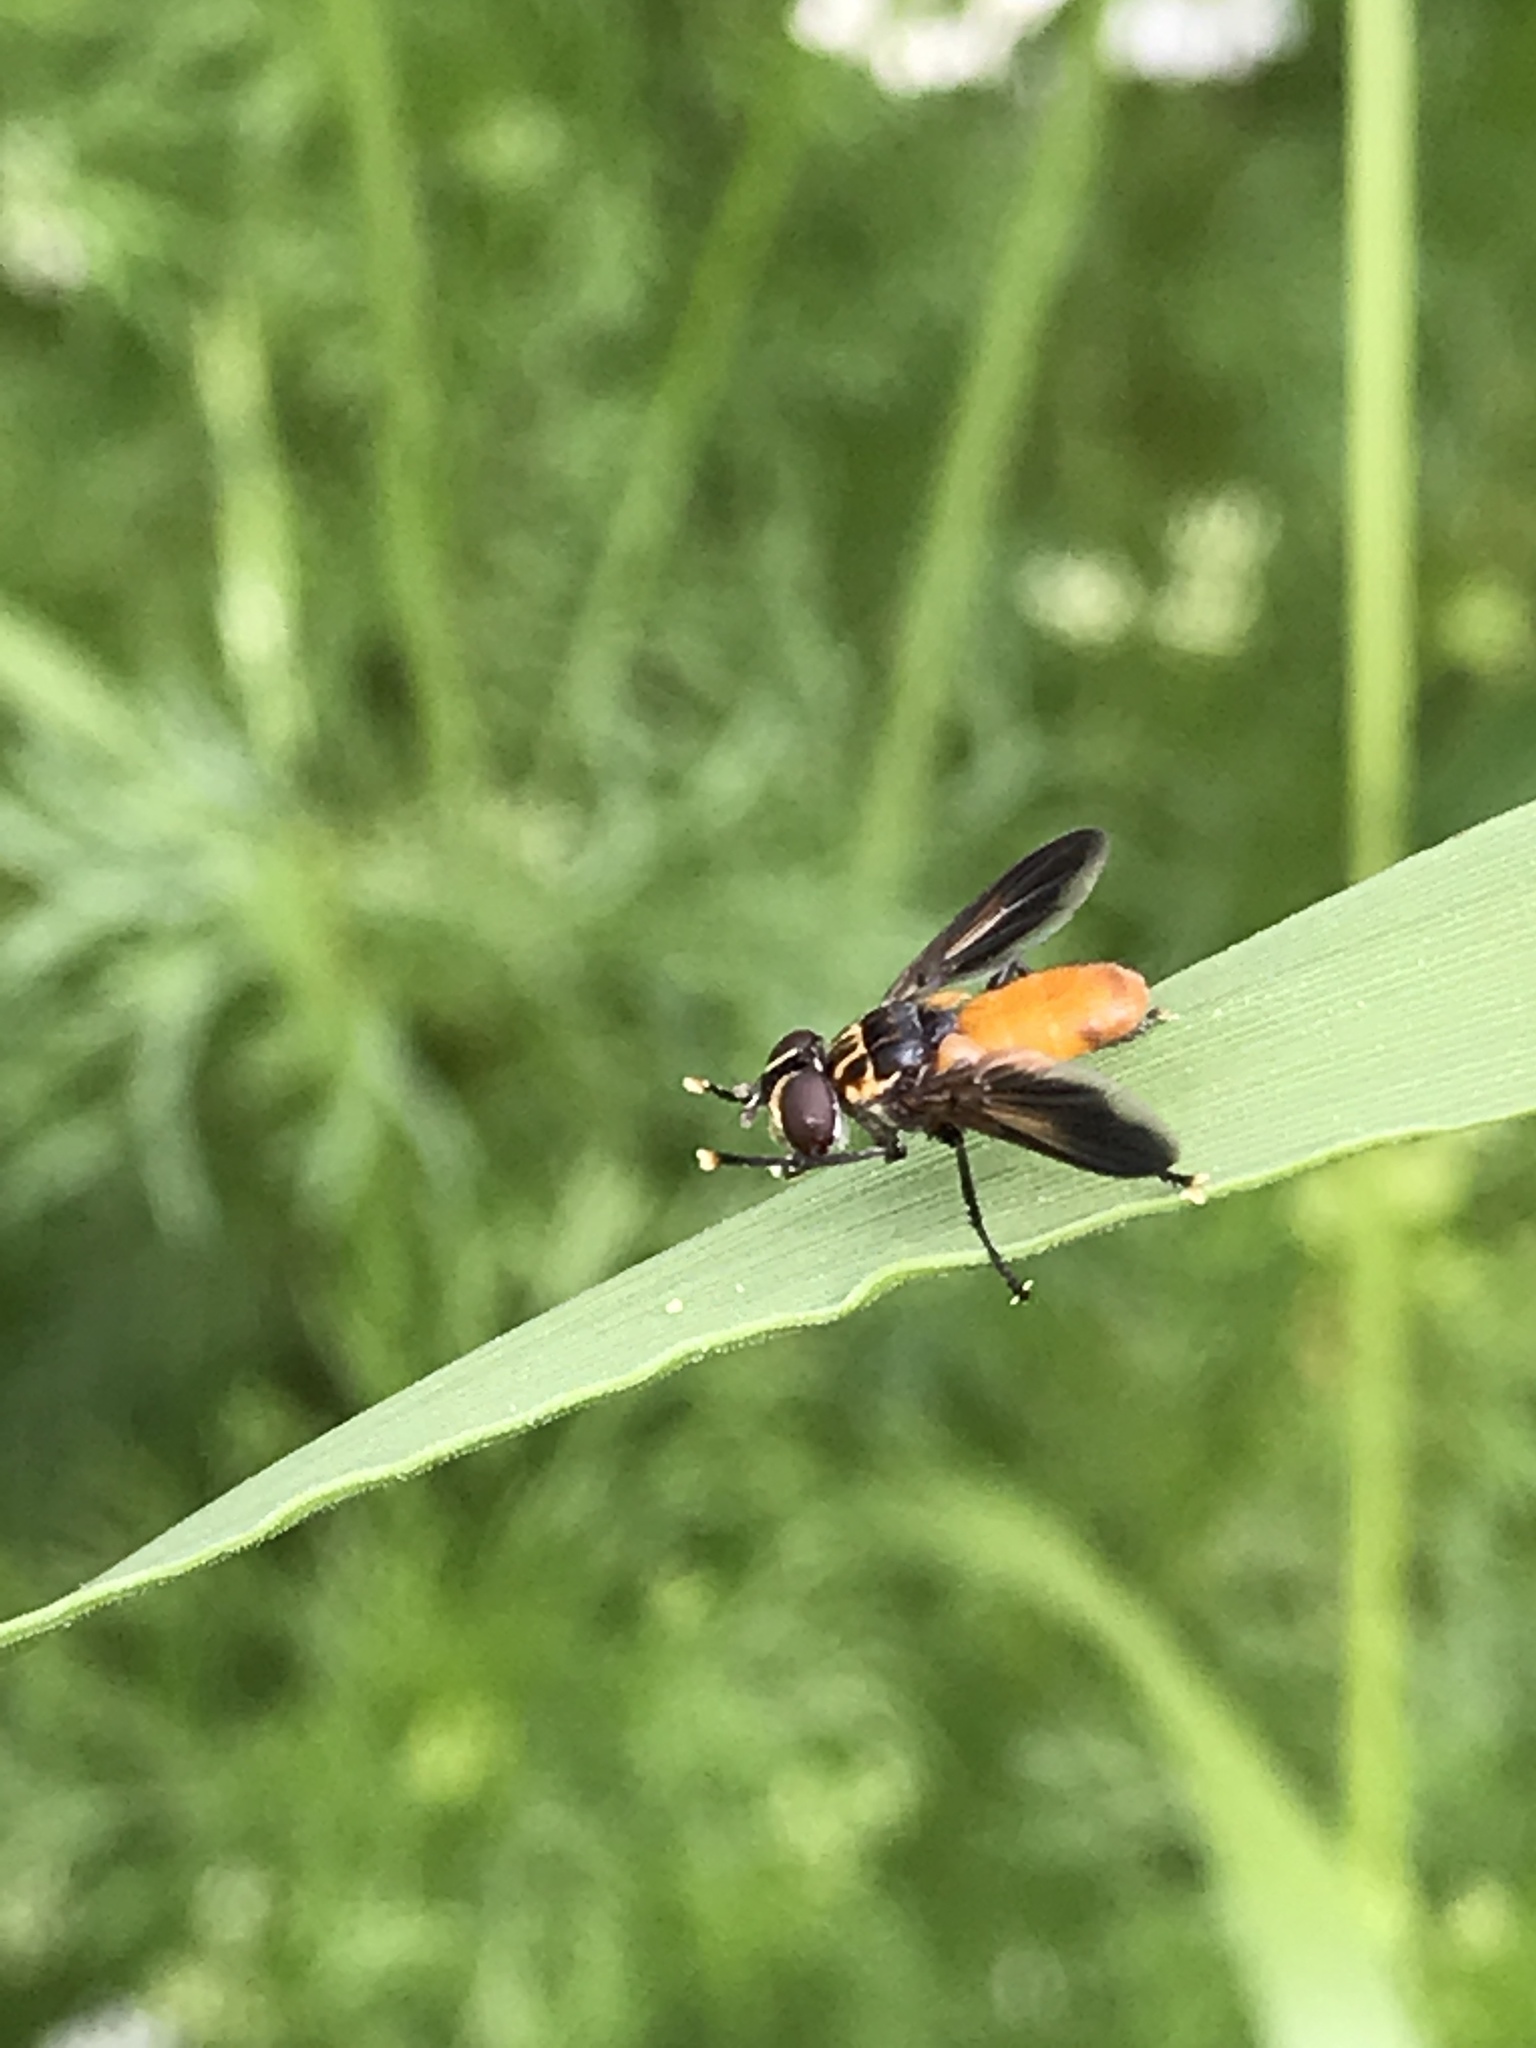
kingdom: Animalia
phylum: Arthropoda
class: Insecta
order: Diptera
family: Tachinidae
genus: Trichopoda
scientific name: Trichopoda pennipes
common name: Tachinid fly
